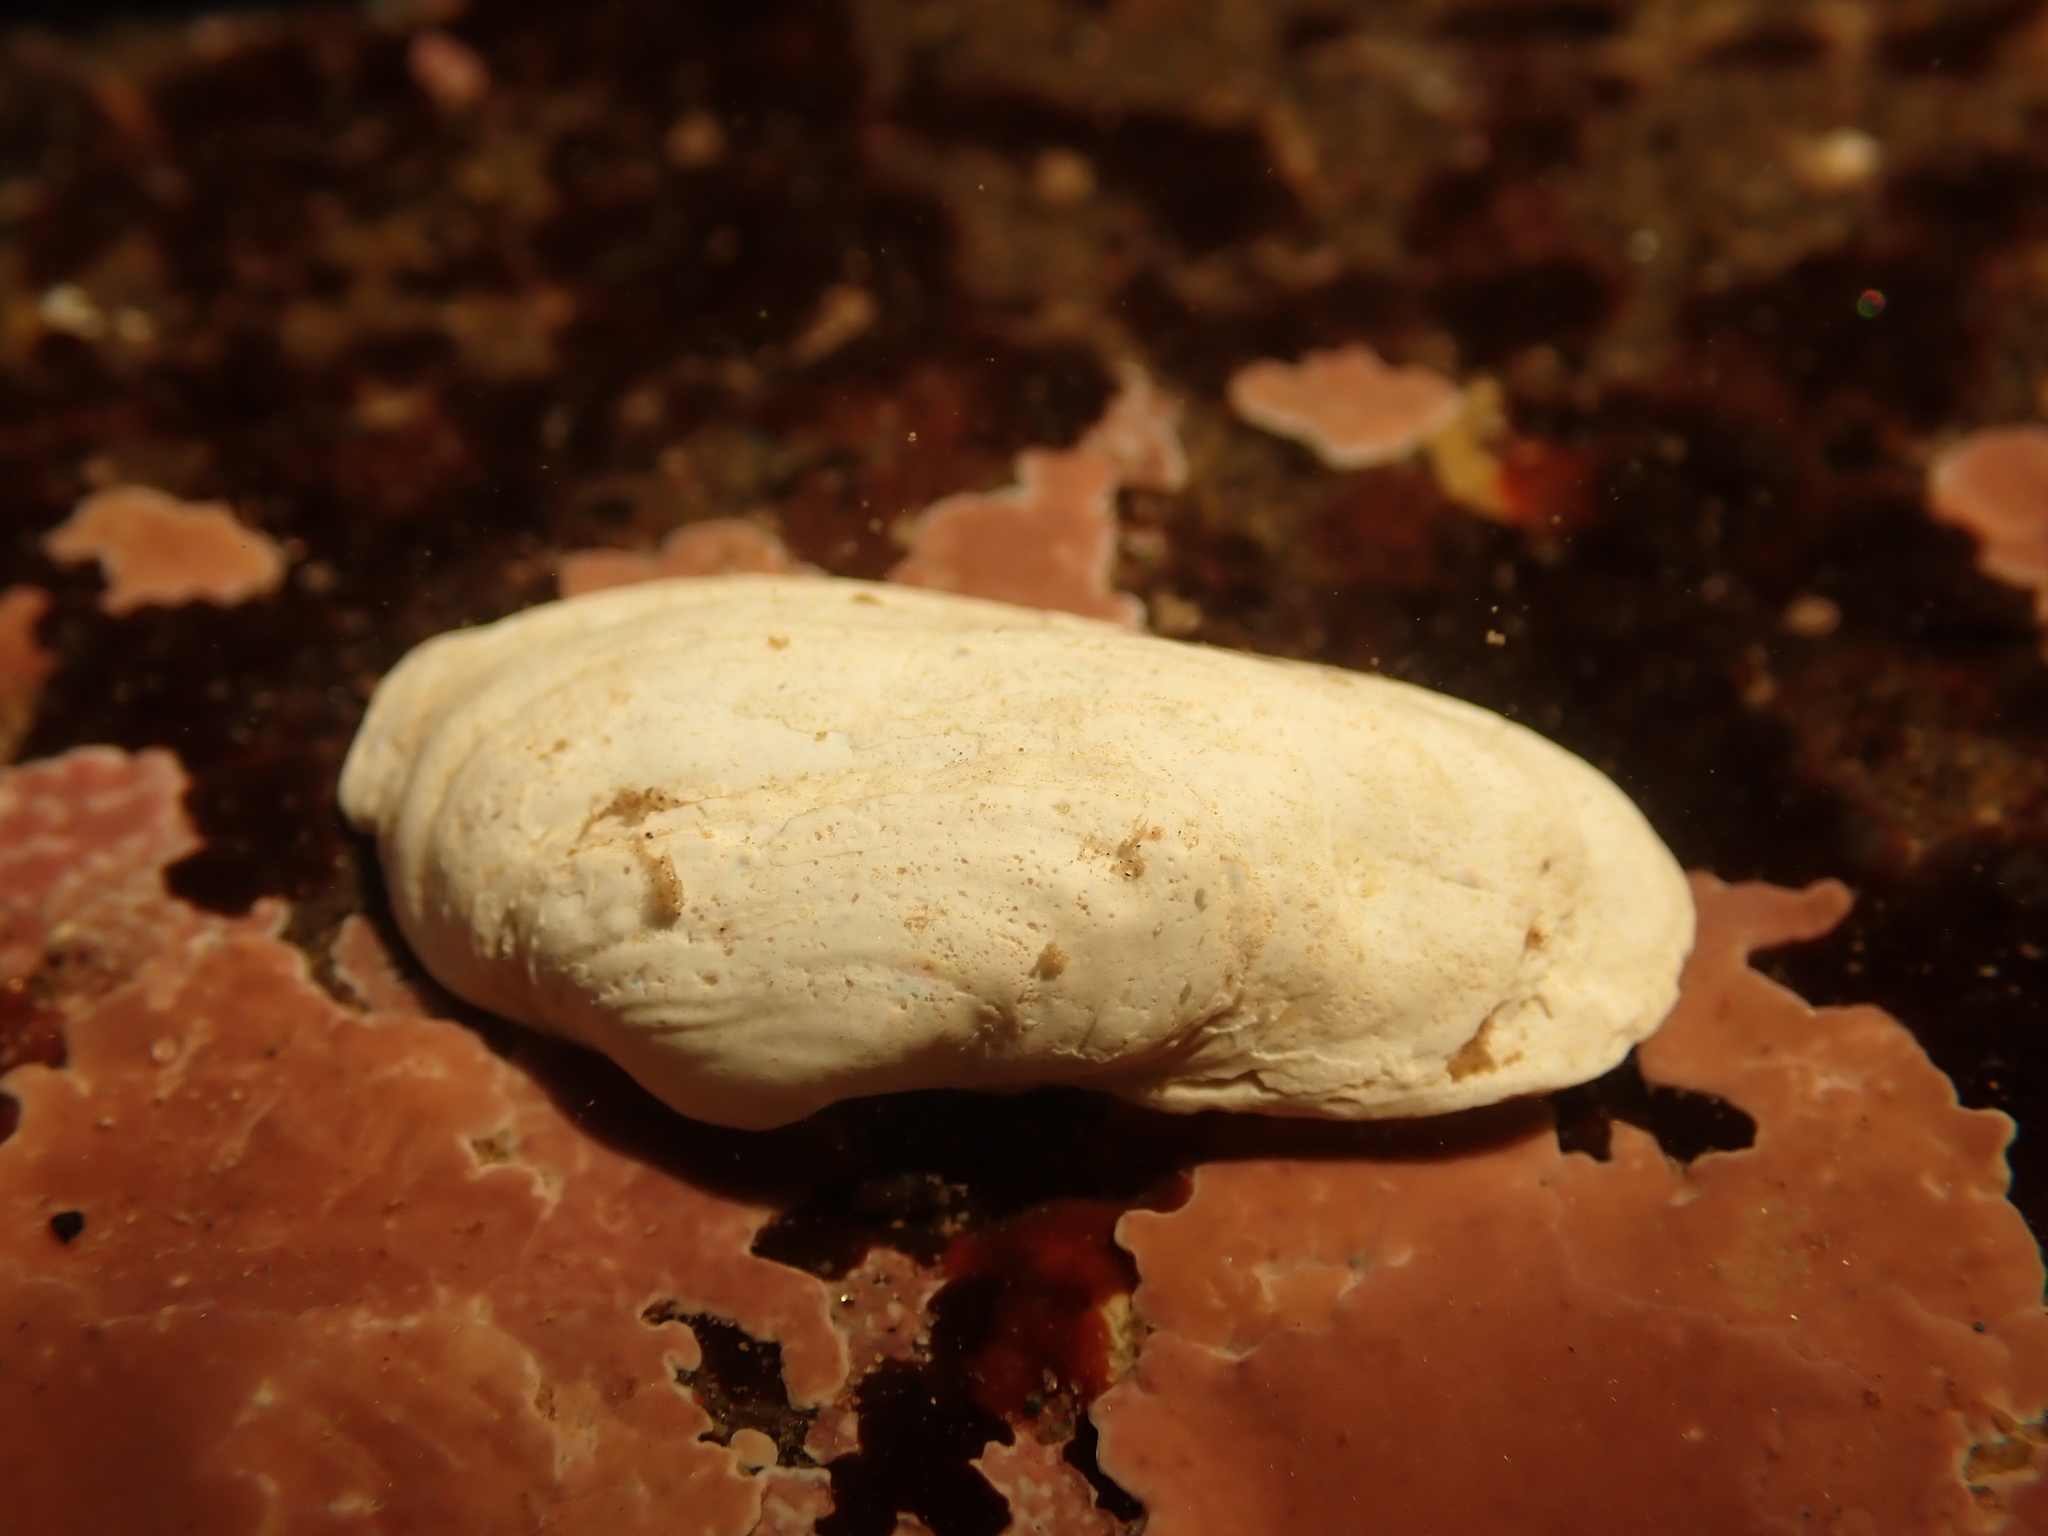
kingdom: Animalia
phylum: Mollusca
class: Bivalvia
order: Adapedonta
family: Hiatellidae
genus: Hiatella
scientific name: Hiatella arctica
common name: Arctic hiatella
